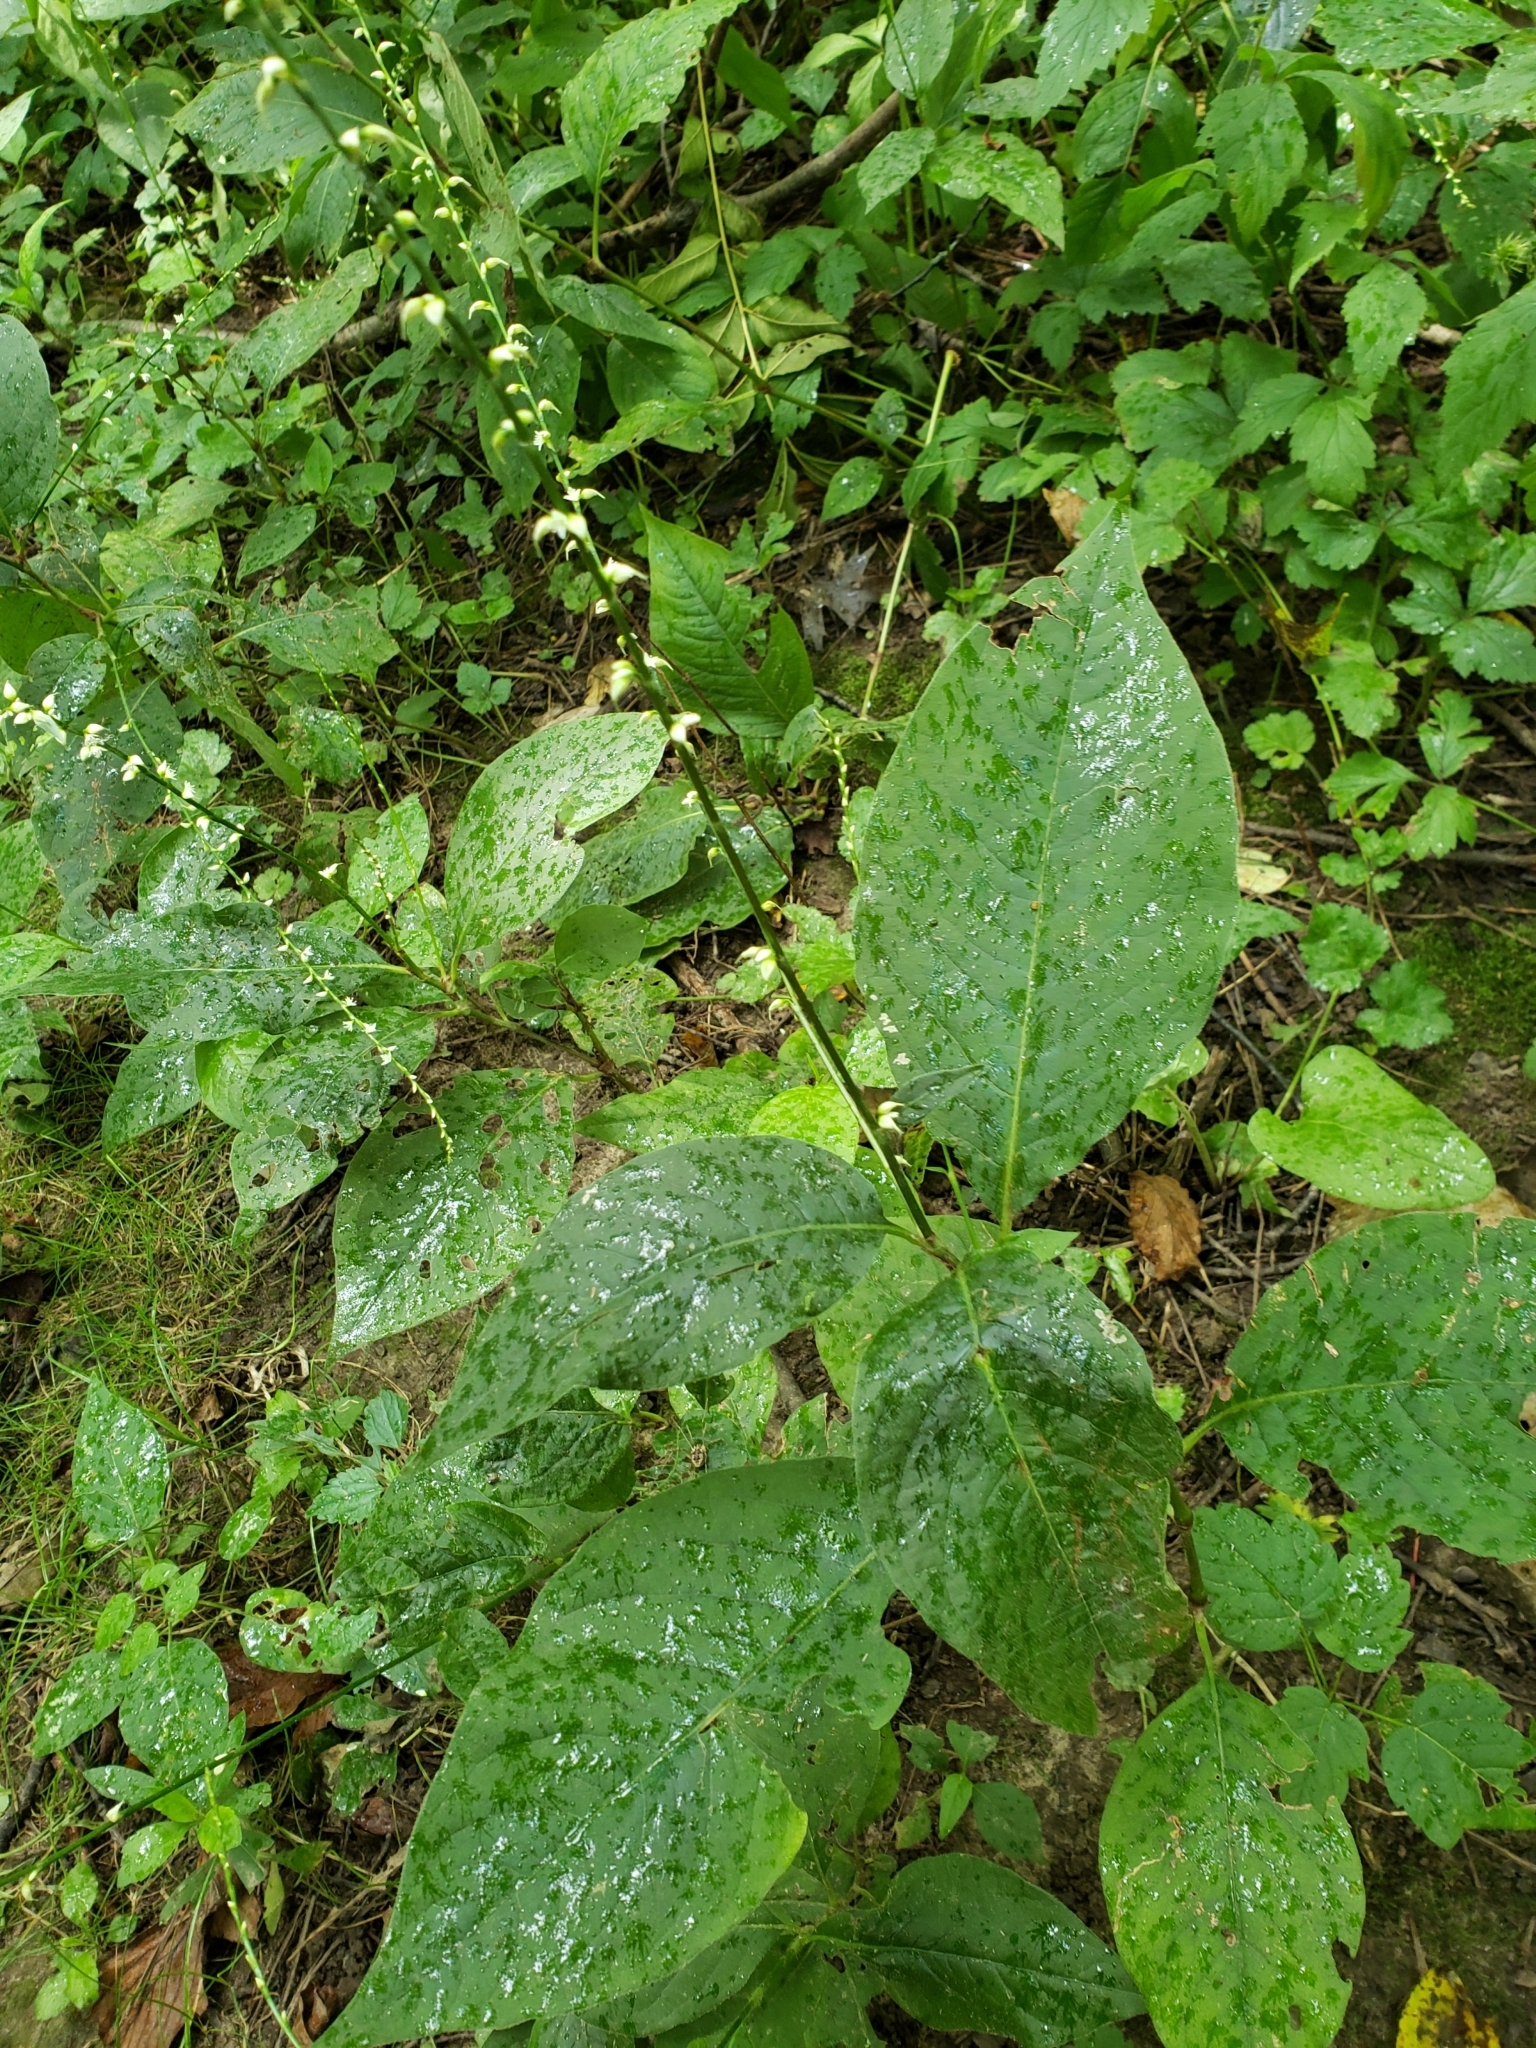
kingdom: Plantae
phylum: Tracheophyta
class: Magnoliopsida
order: Caryophyllales
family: Polygonaceae
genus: Persicaria
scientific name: Persicaria virginiana
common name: Jumpseed
